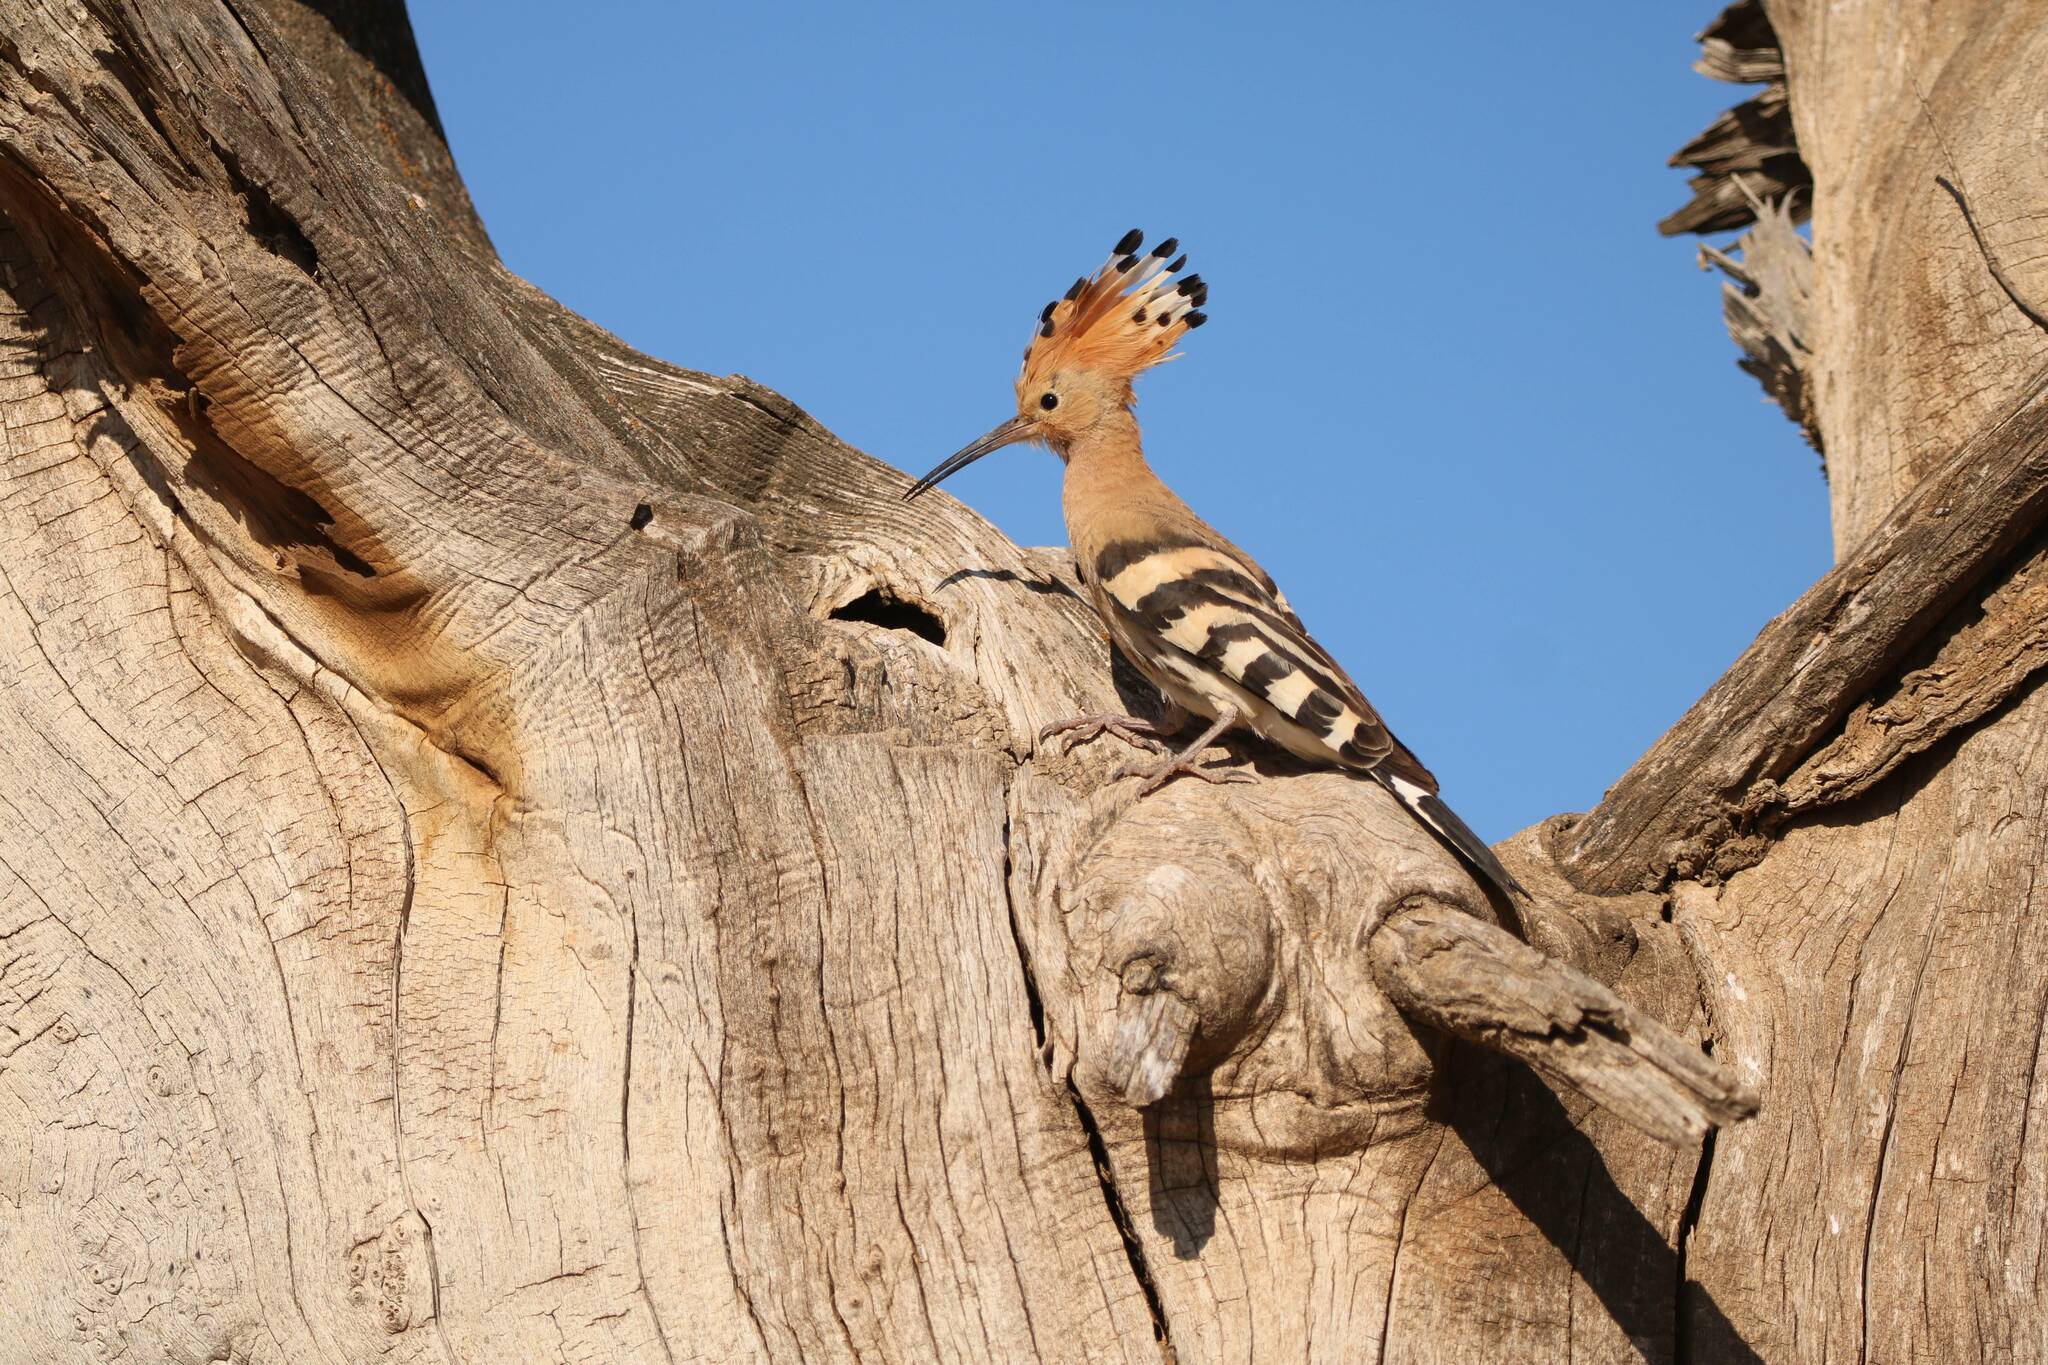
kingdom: Animalia
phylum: Chordata
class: Aves
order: Bucerotiformes
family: Upupidae
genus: Upupa
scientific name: Upupa epops
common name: Eurasian hoopoe
